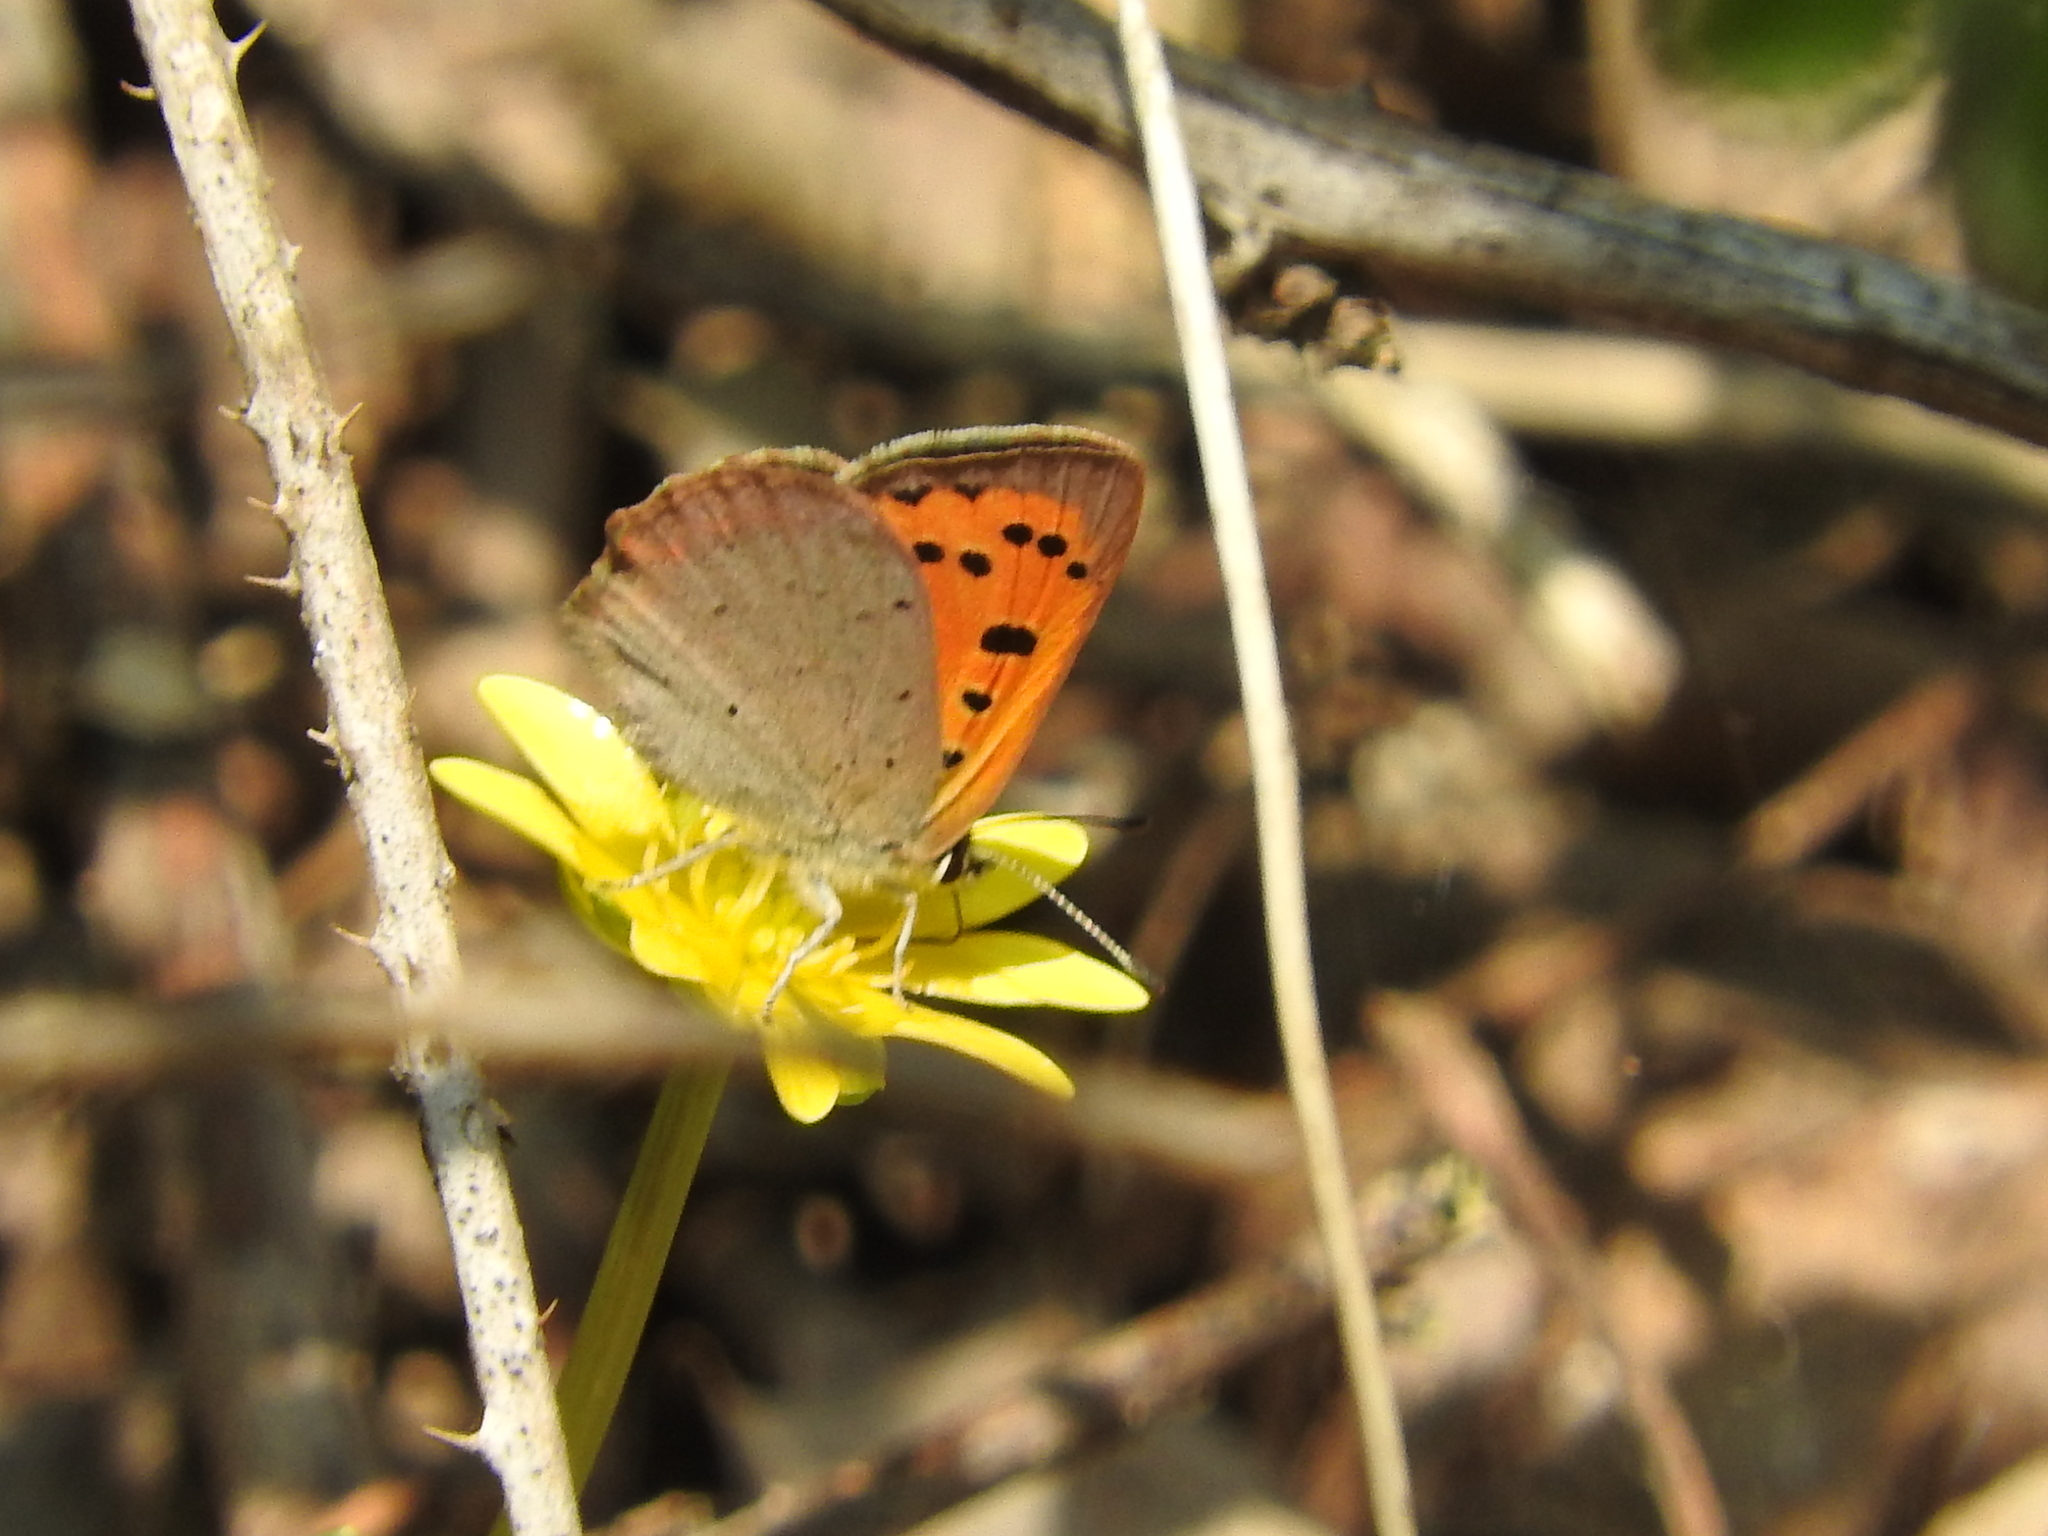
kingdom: Animalia
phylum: Arthropoda
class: Insecta
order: Lepidoptera
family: Lycaenidae
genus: Lycaena
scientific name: Lycaena phlaeas
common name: Small copper
